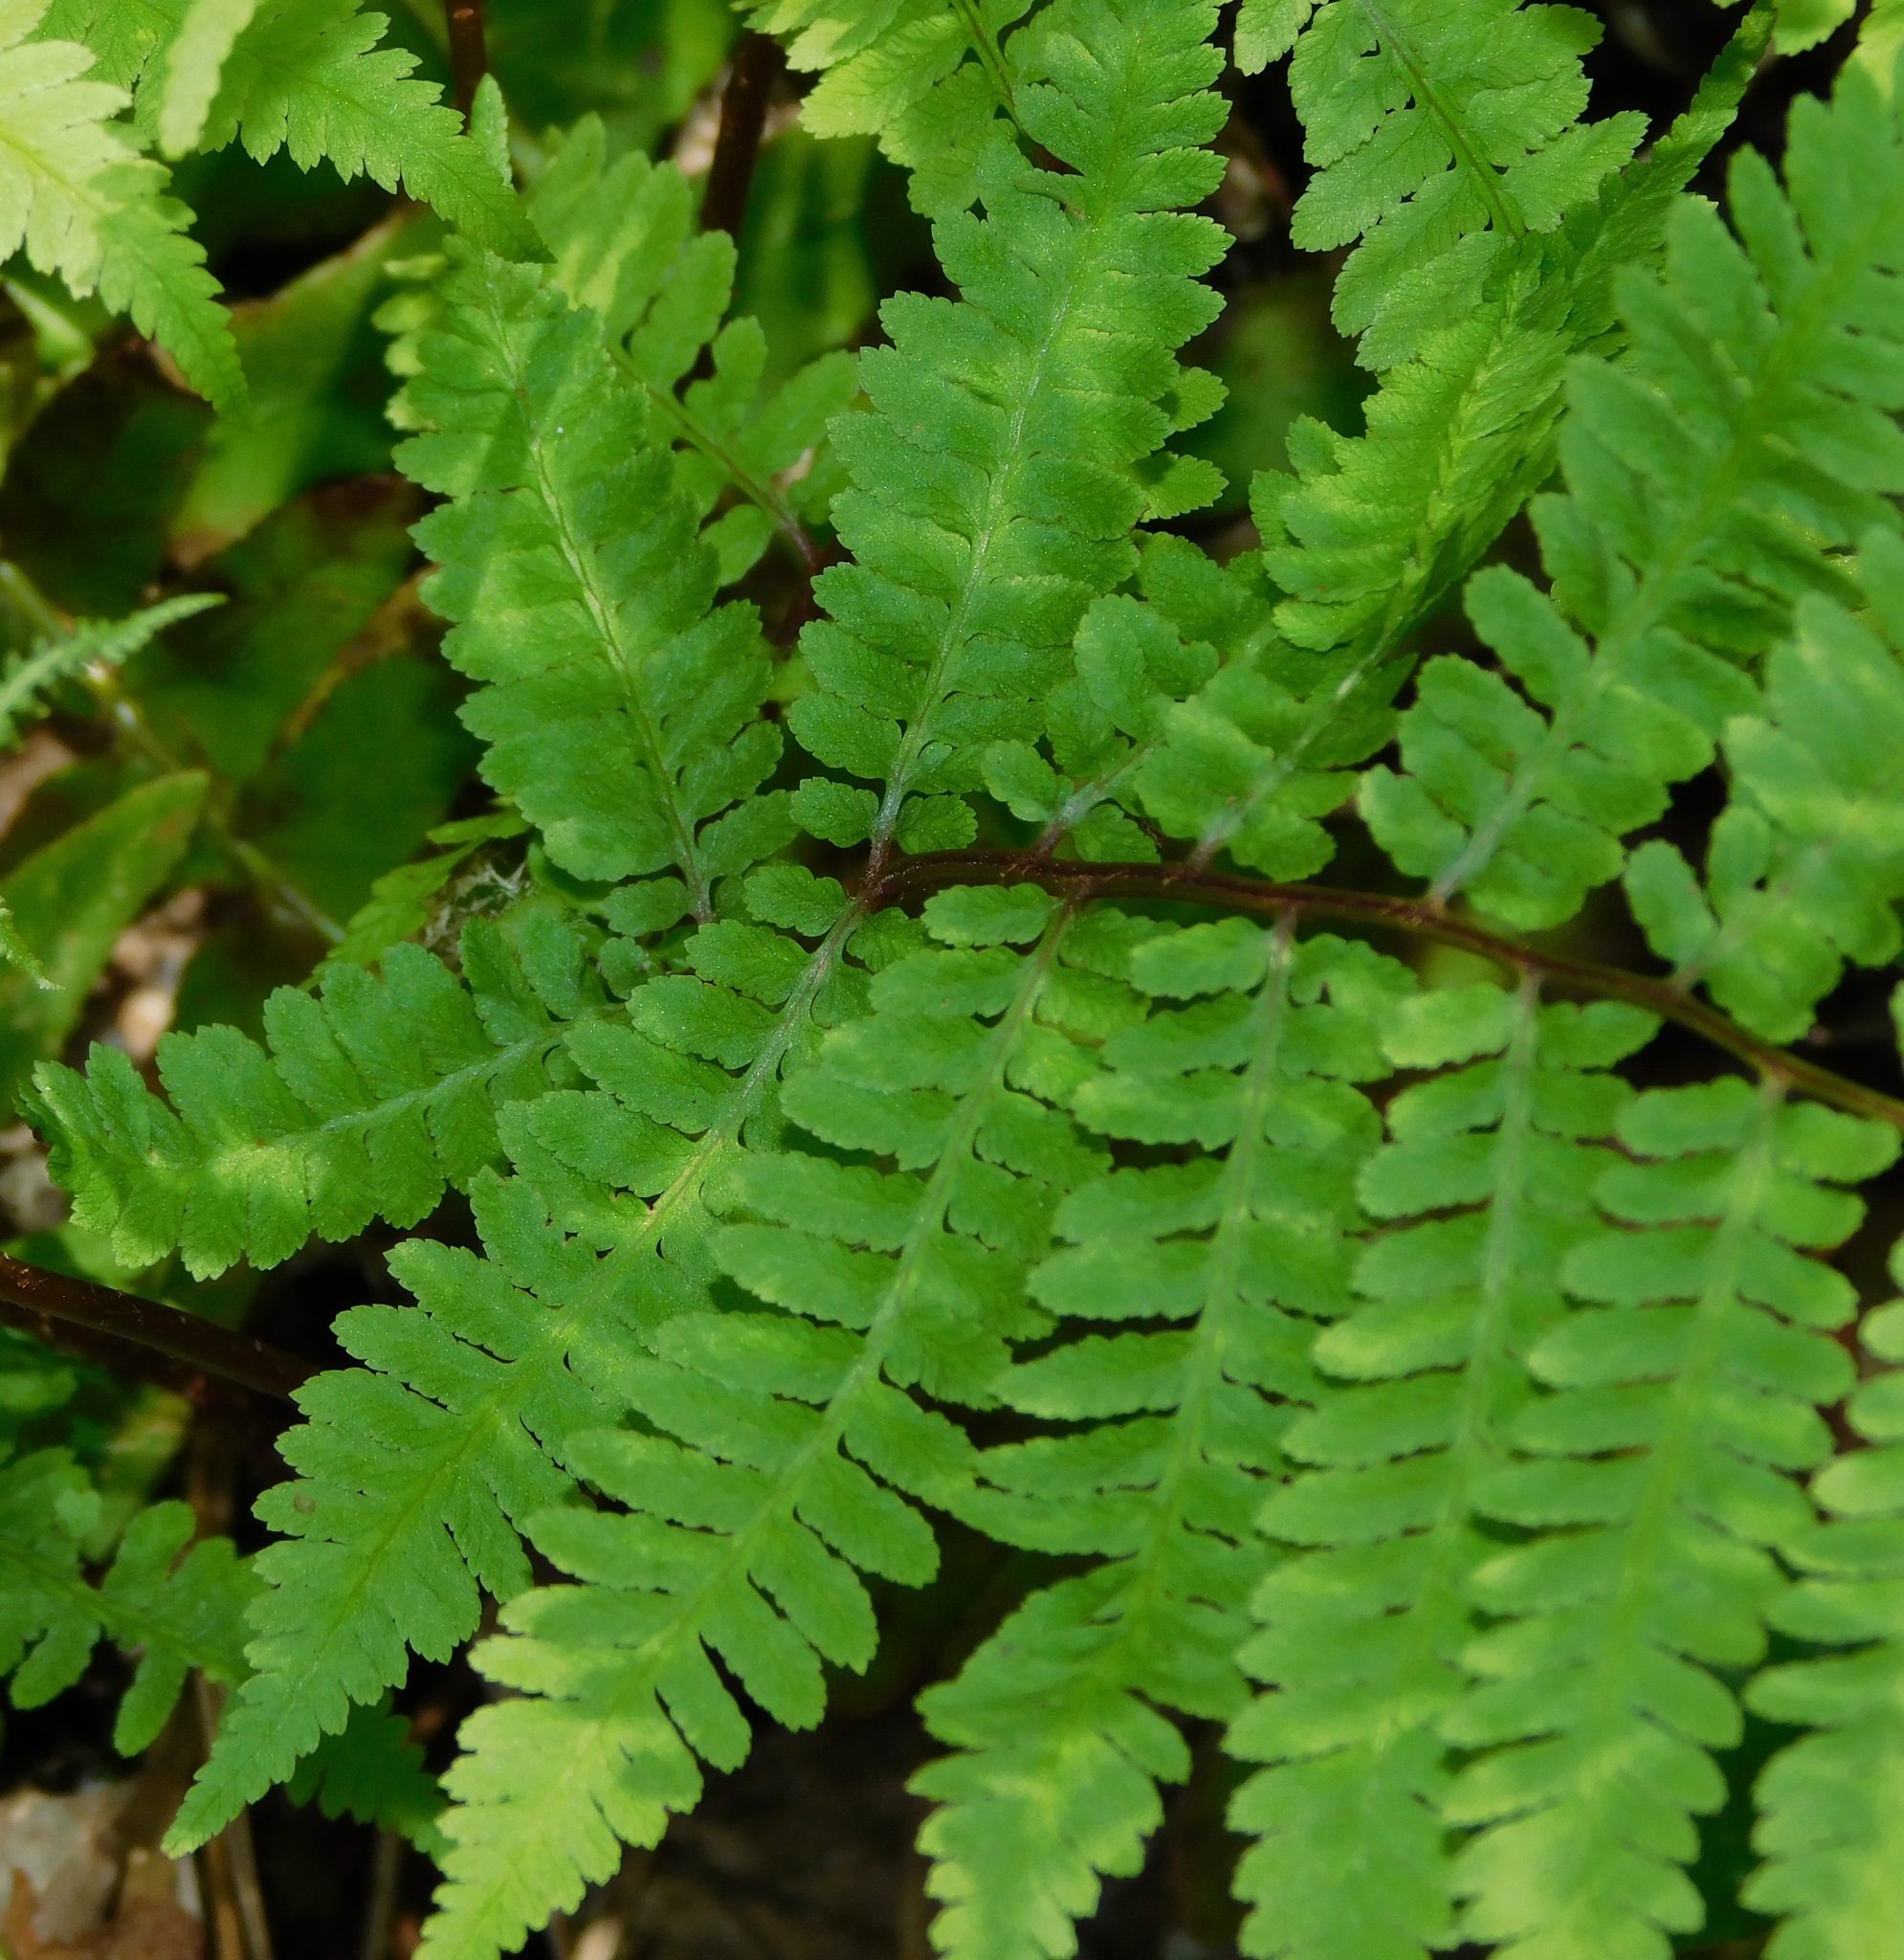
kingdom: Plantae
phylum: Tracheophyta
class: Polypodiopsida
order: Polypodiales
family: Athyriaceae
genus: Athyrium
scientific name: Athyrium asplenioides
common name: Southern lady fern
